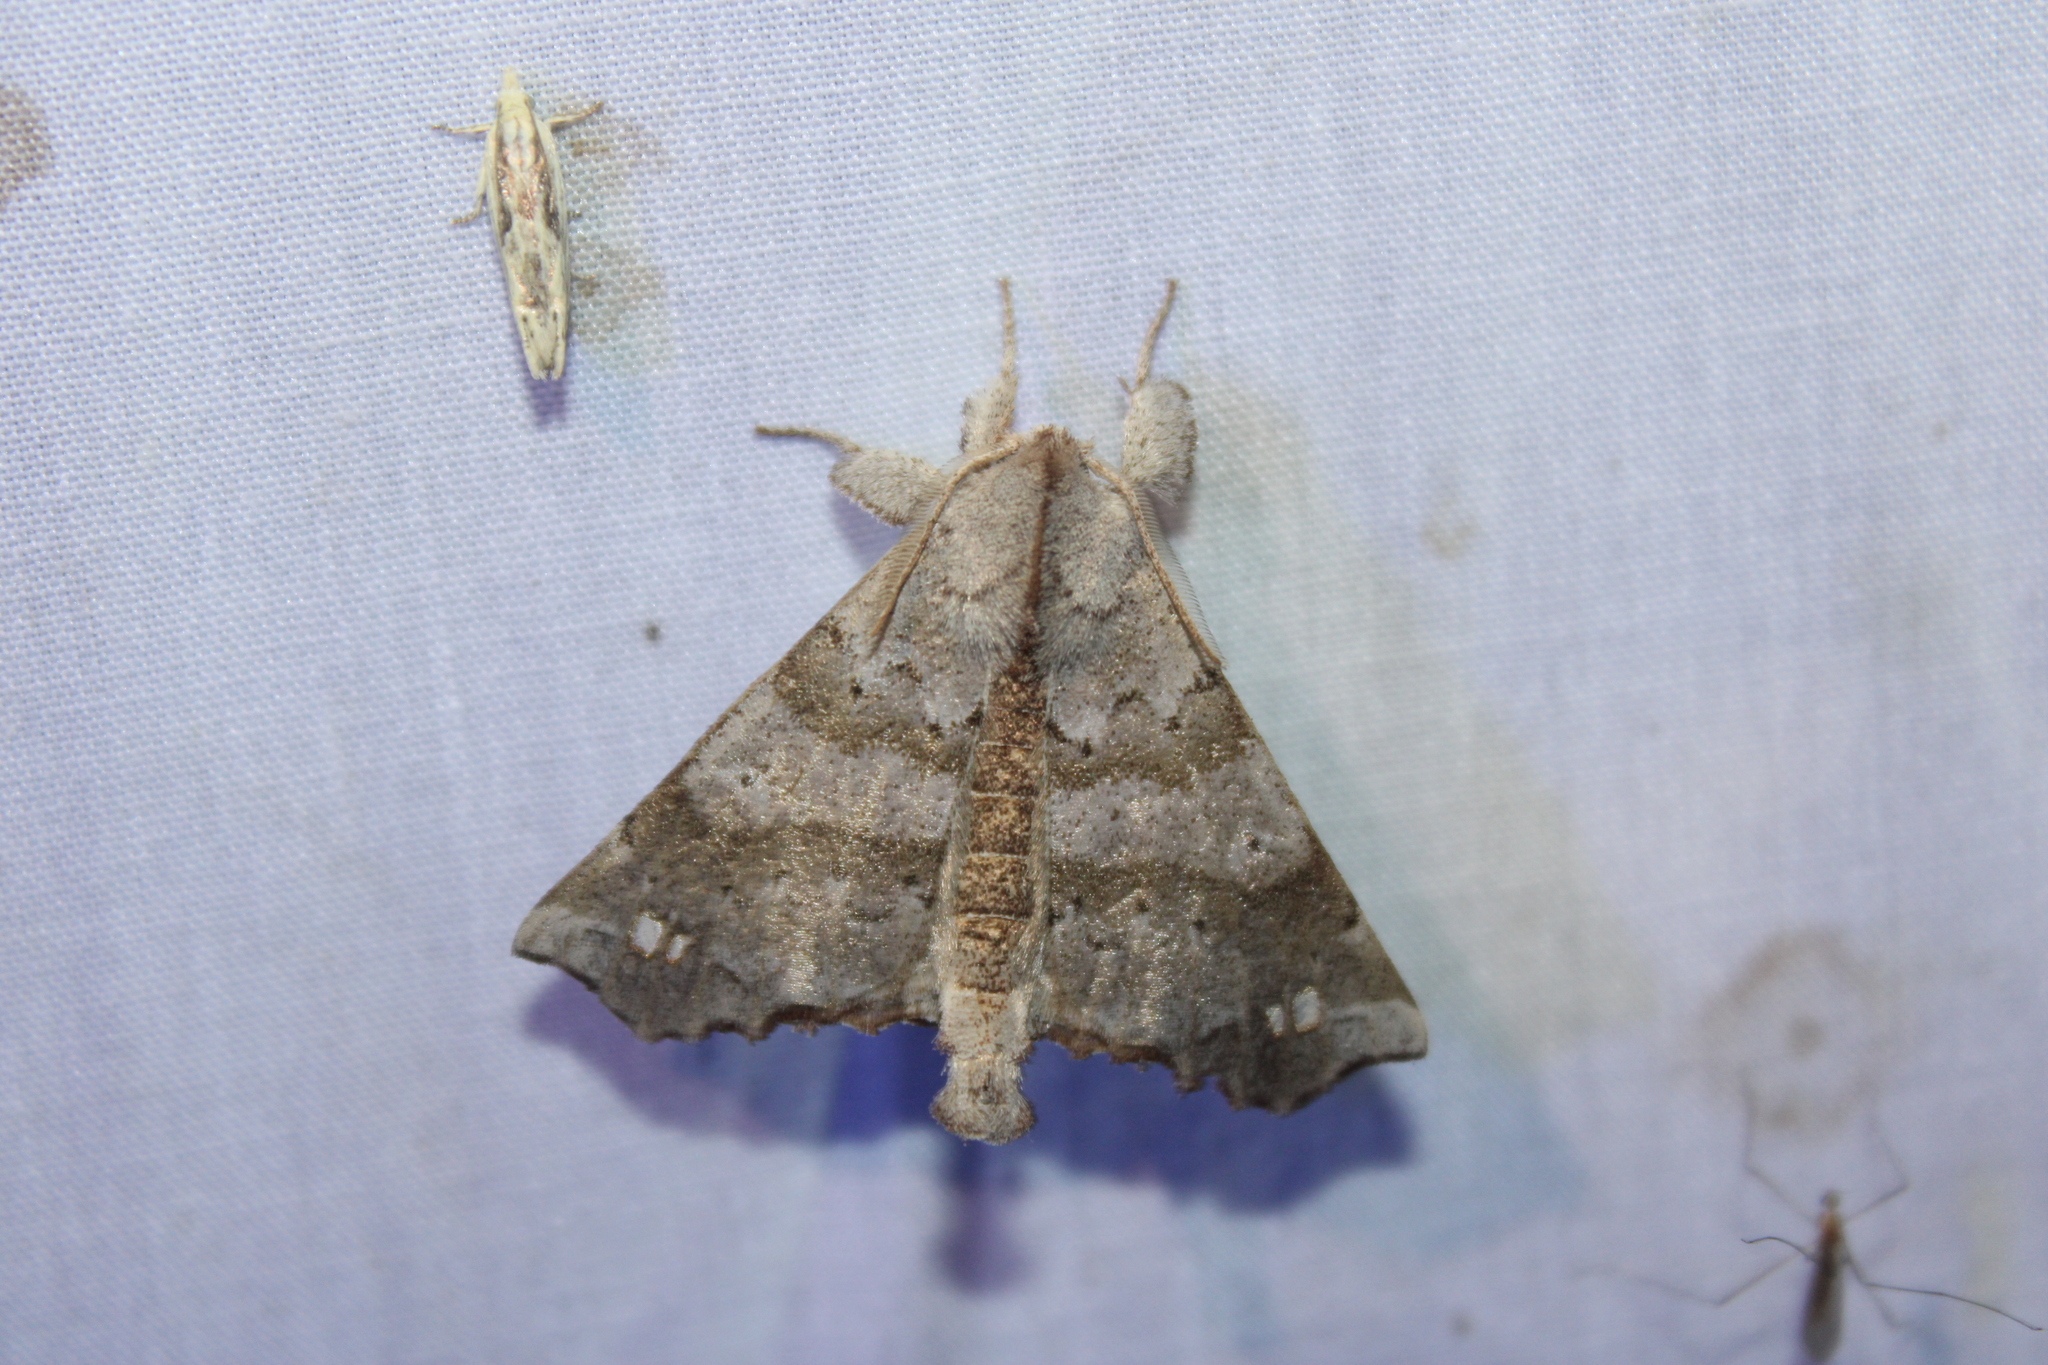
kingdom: Animalia
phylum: Arthropoda
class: Insecta
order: Lepidoptera
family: Apatelodidae
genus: Olceclostera
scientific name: Olceclostera angelica
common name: Angel moth
